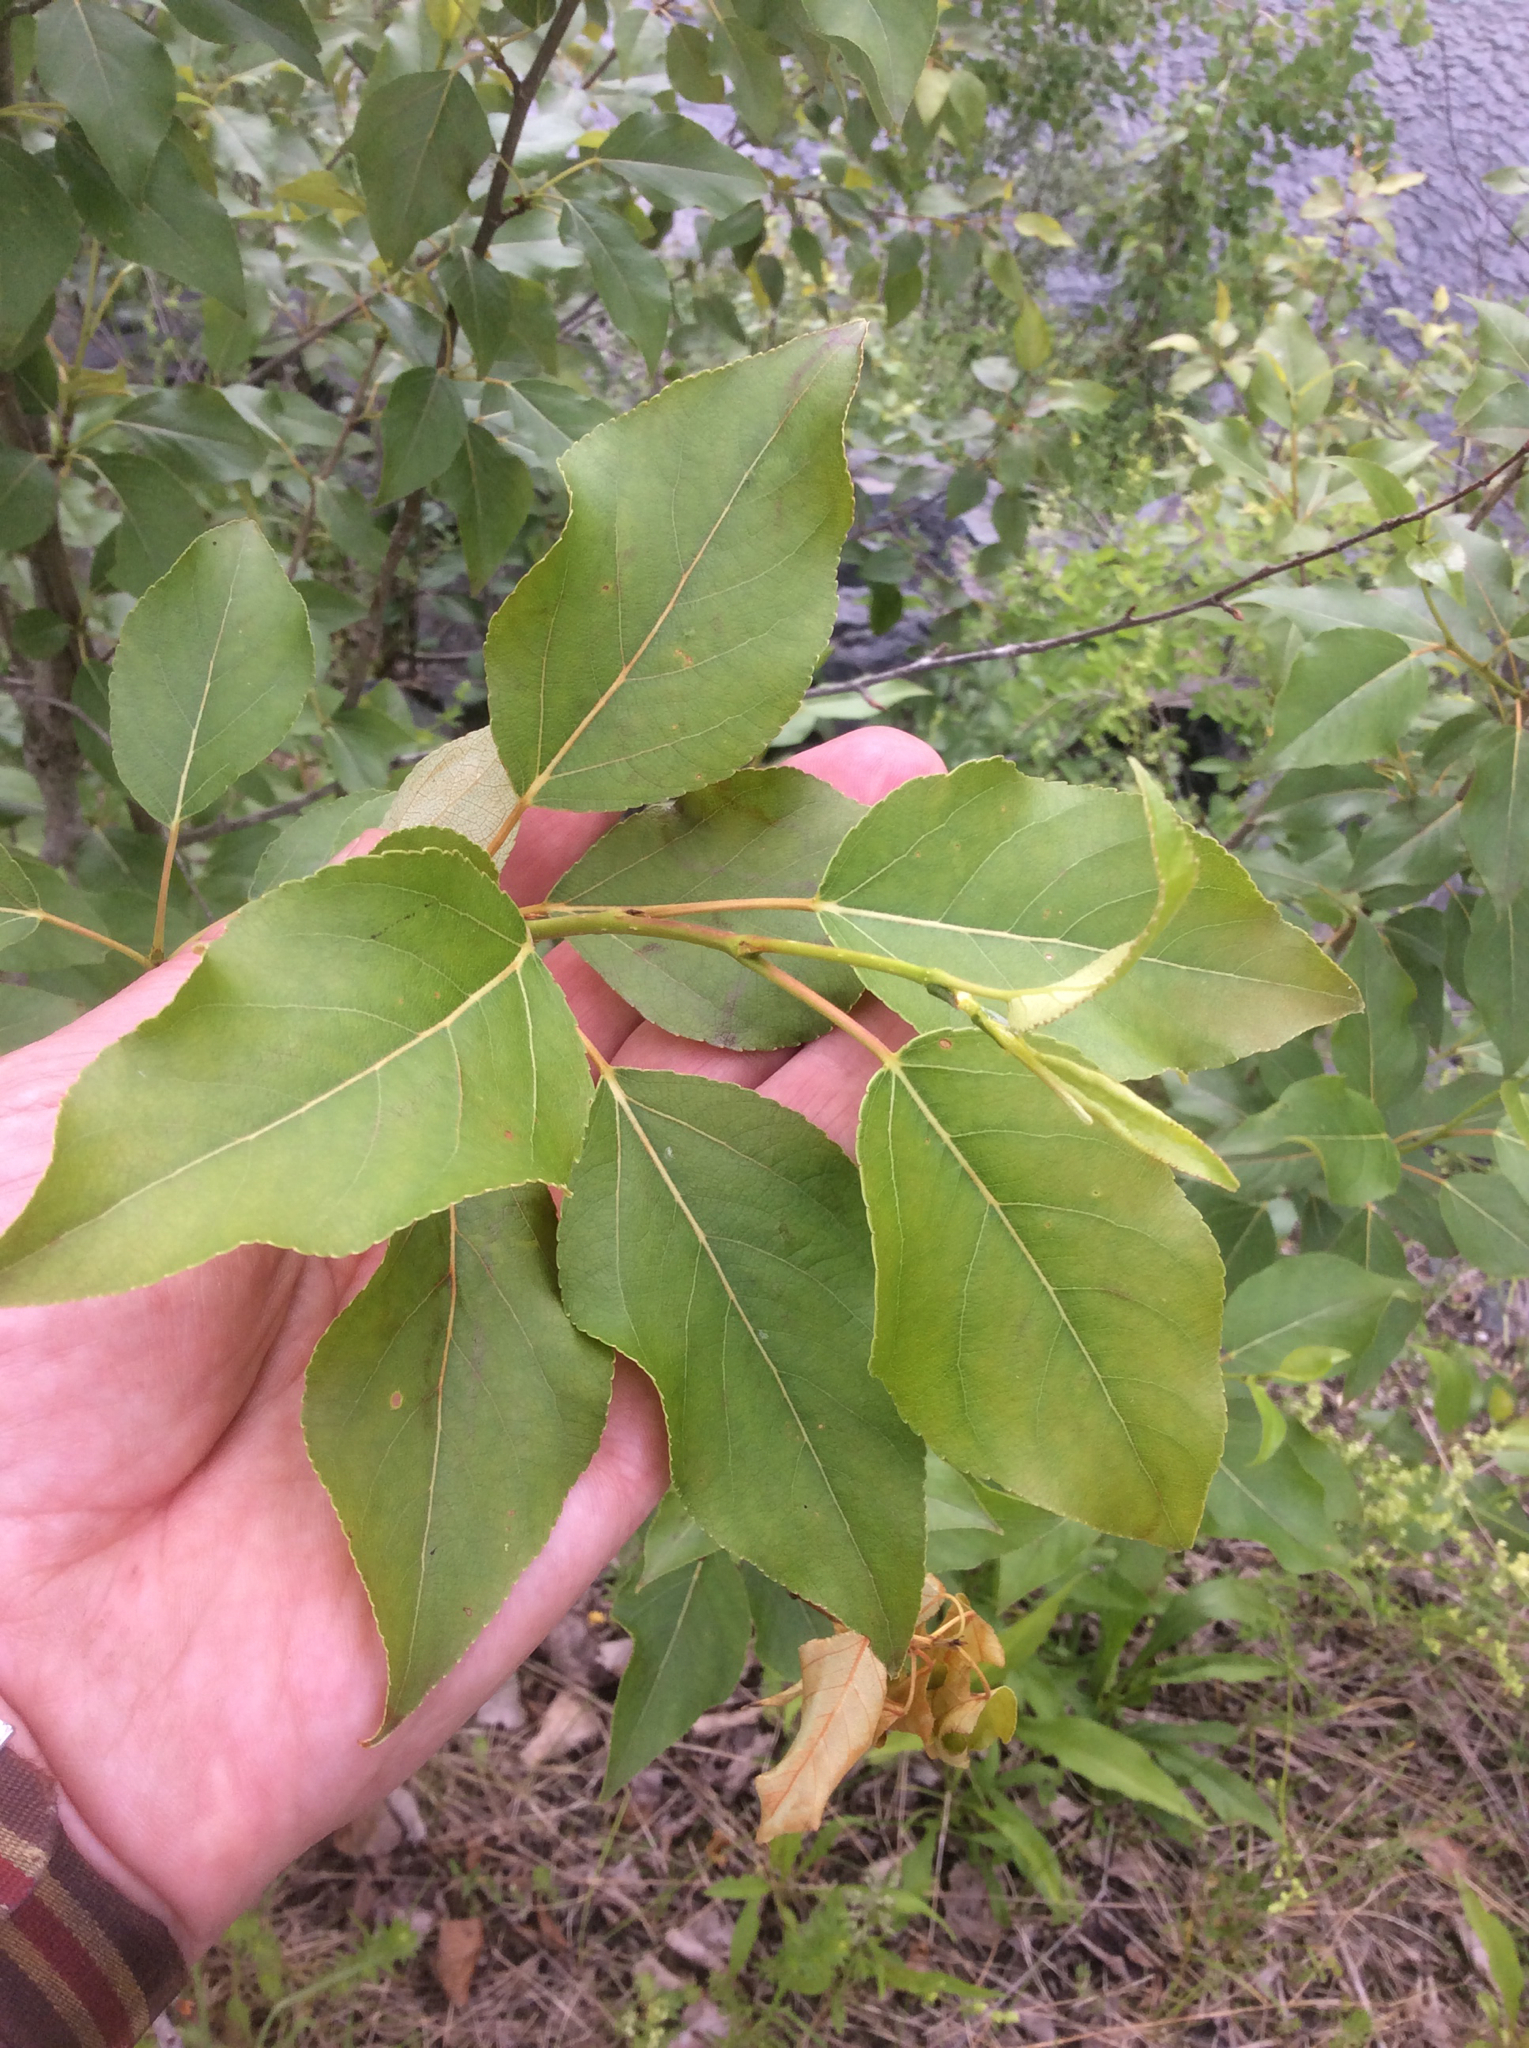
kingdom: Plantae
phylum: Tracheophyta
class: Magnoliopsida
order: Malpighiales
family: Salicaceae
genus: Populus
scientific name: Populus balsamifera
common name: Balsam poplar
